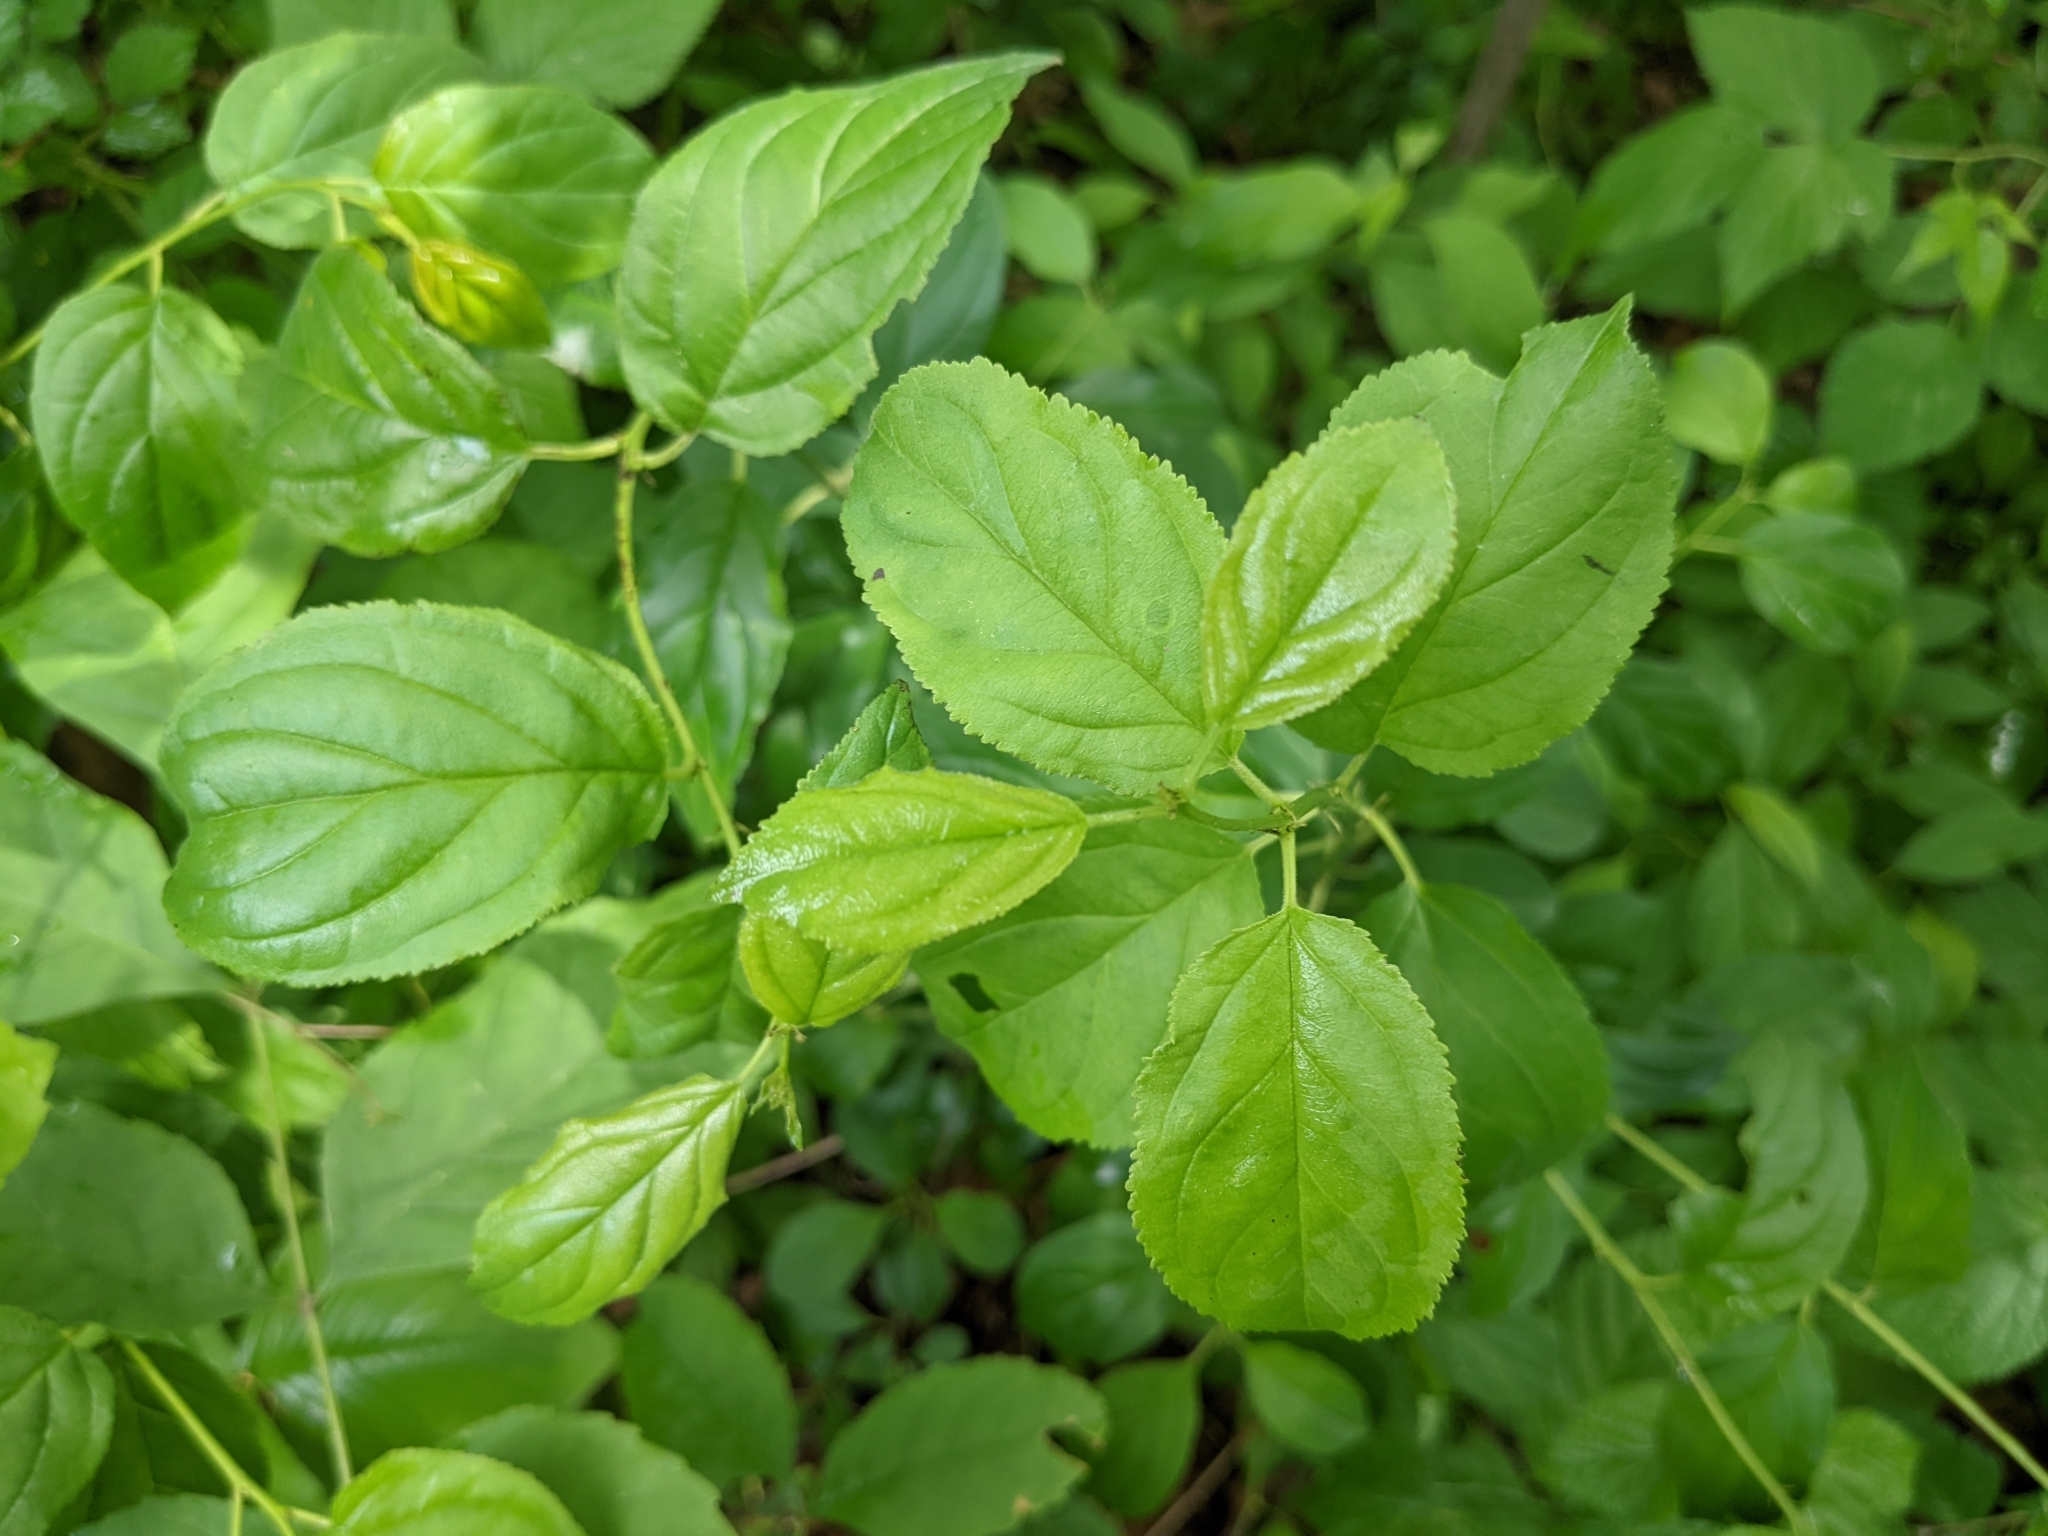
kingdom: Plantae
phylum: Tracheophyta
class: Magnoliopsida
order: Rosales
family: Rhamnaceae
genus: Rhamnus
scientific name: Rhamnus cathartica
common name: Common buckthorn
